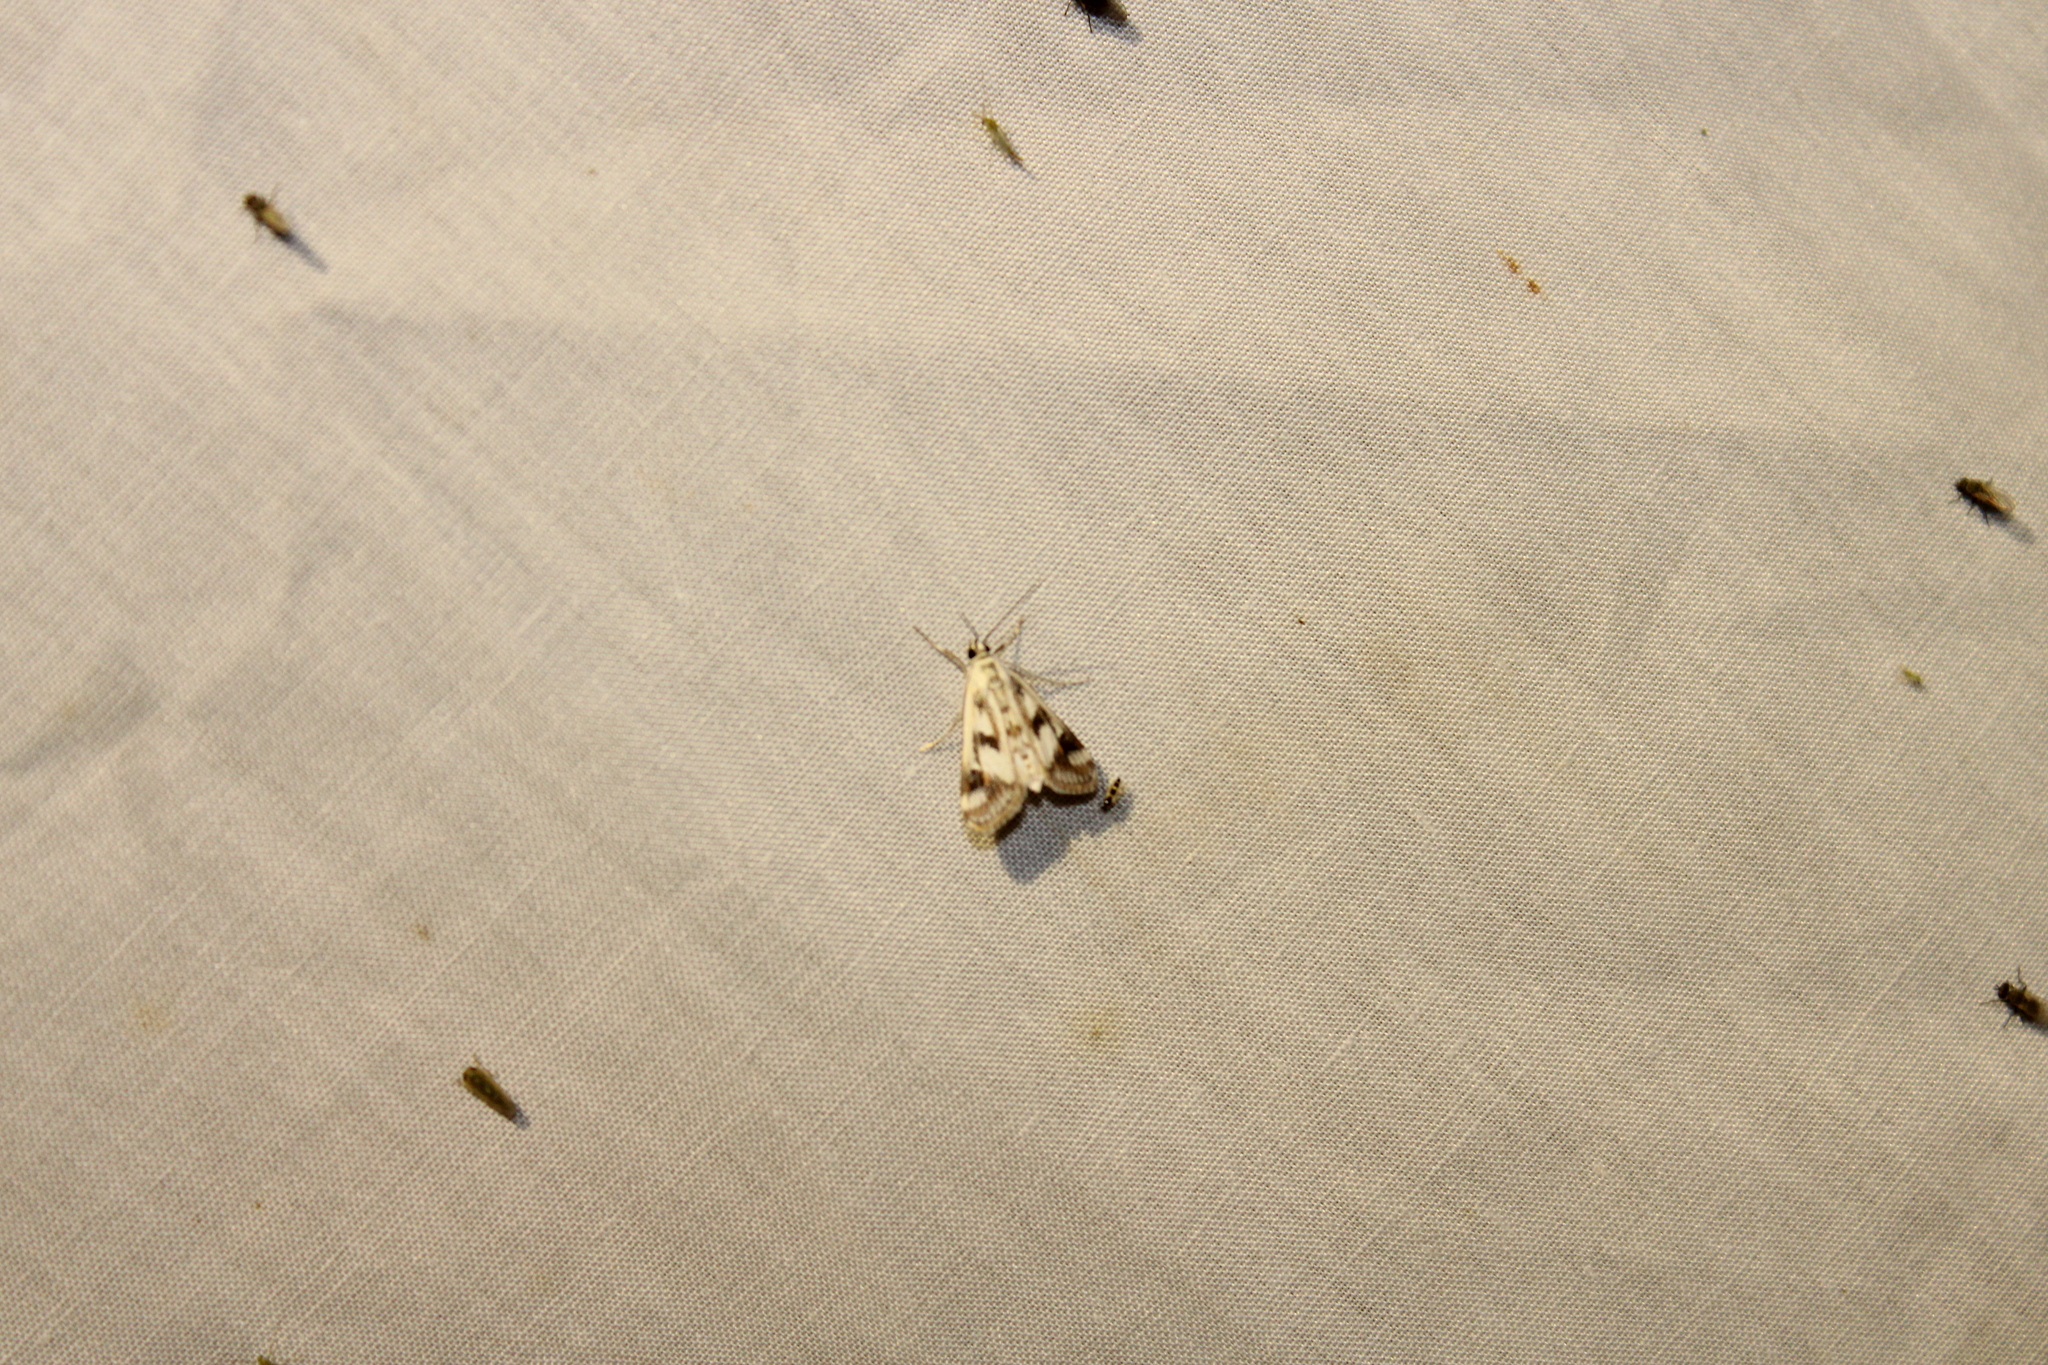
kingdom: Animalia
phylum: Arthropoda
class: Insecta
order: Lepidoptera
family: Crambidae
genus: Parapoynx
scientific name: Parapoynx maculalis
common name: Polymorphic pondweed moth
